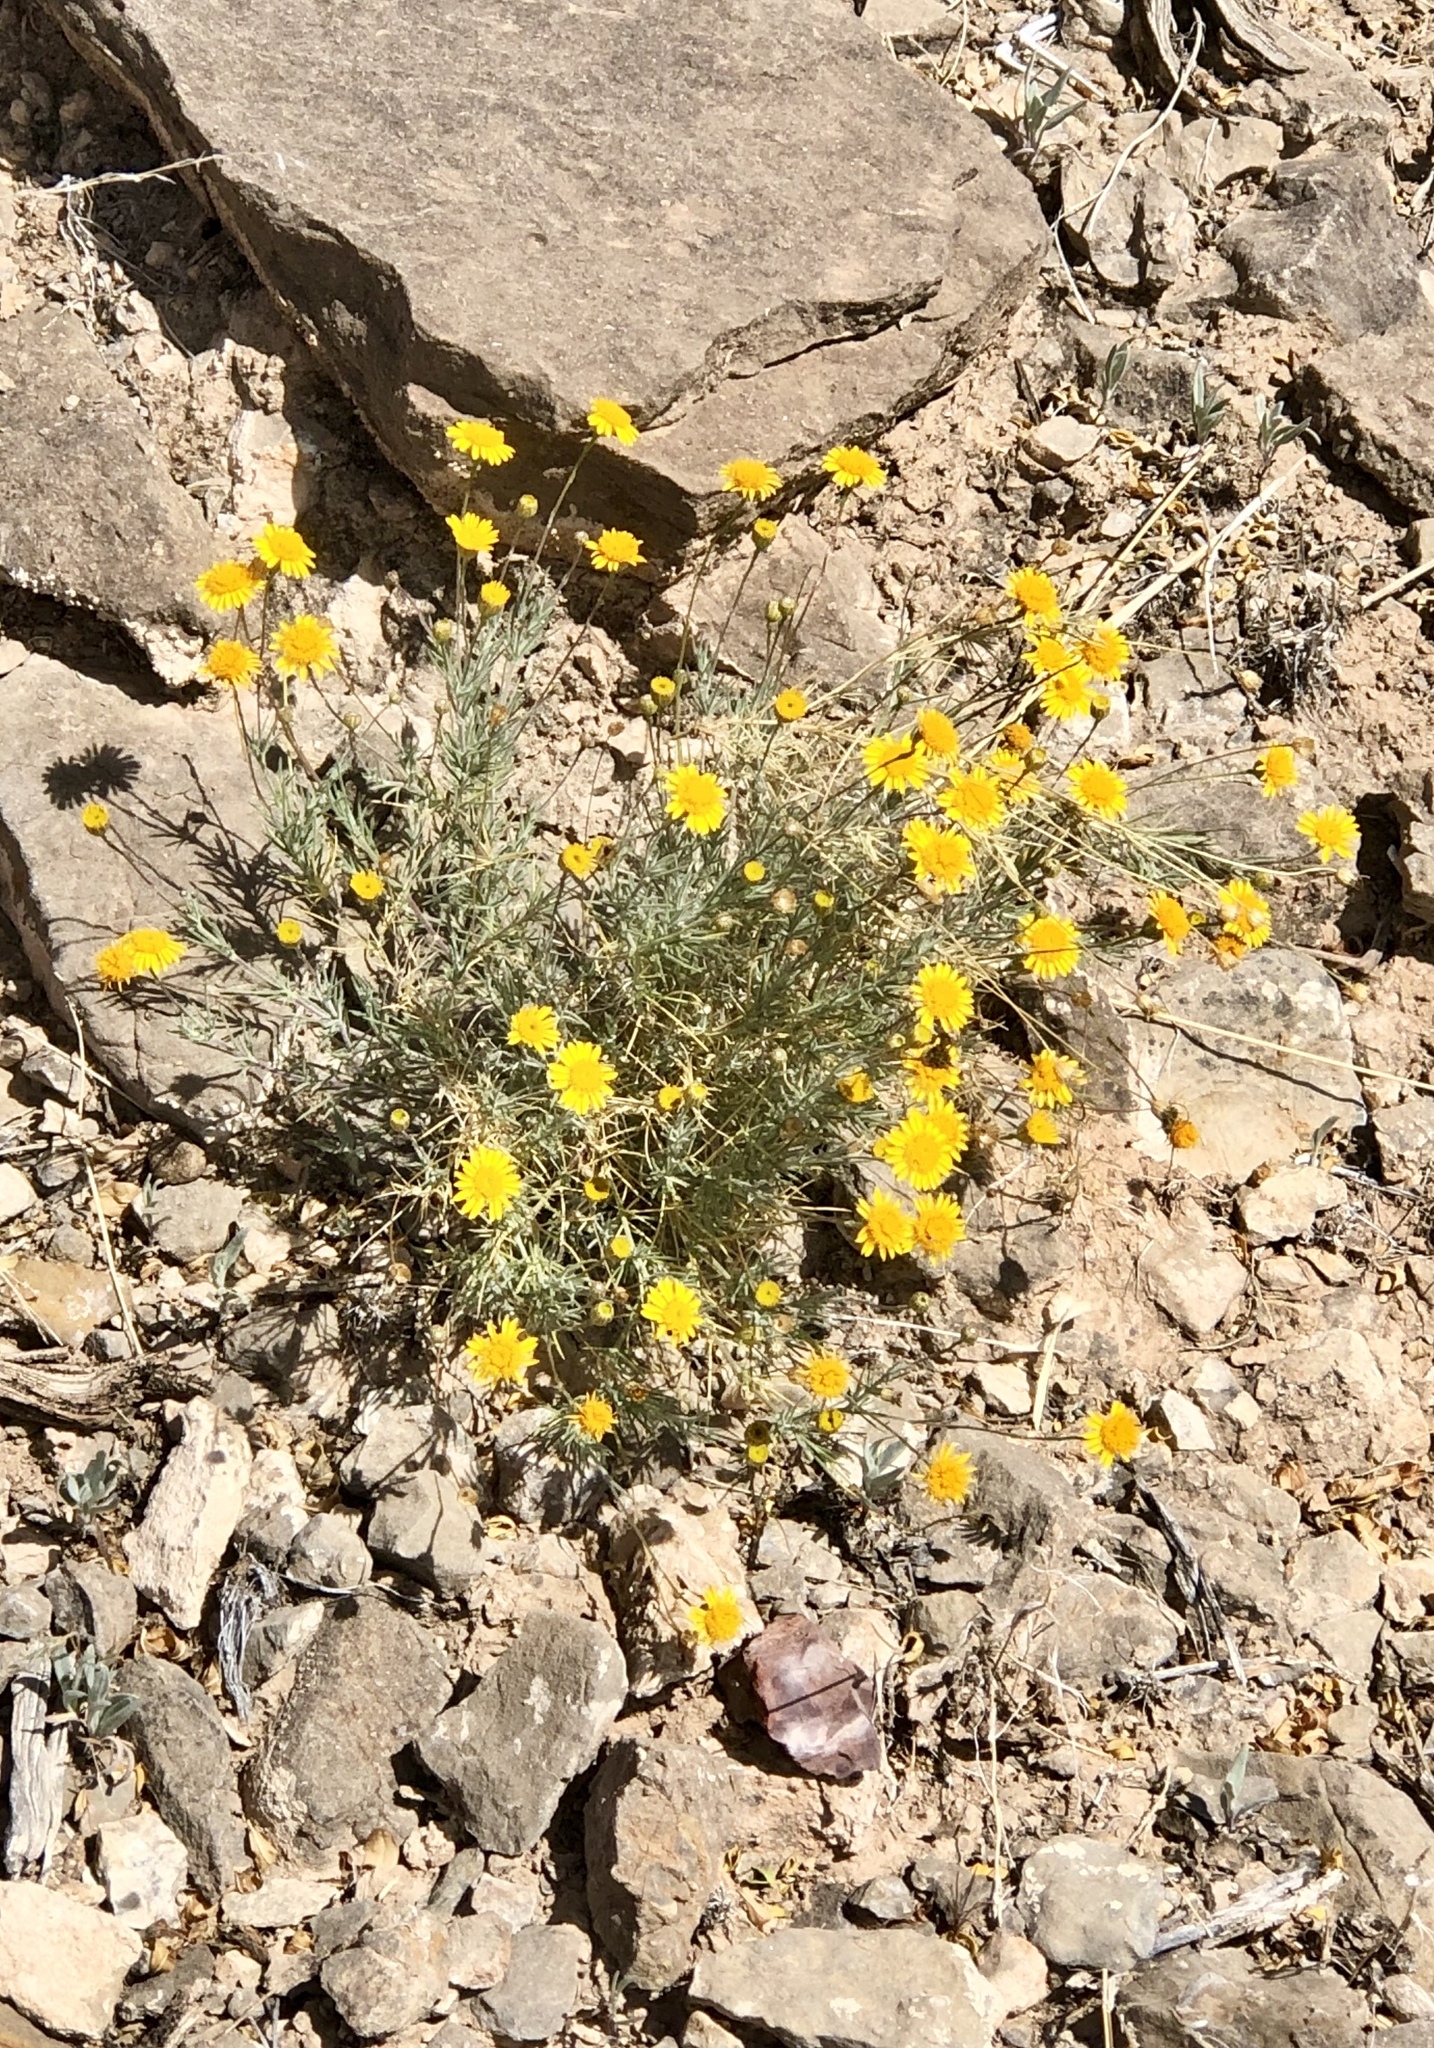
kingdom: Plantae
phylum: Tracheophyta
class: Magnoliopsida
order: Asterales
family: Asteraceae
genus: Thymophylla
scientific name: Thymophylla pentachaeta
